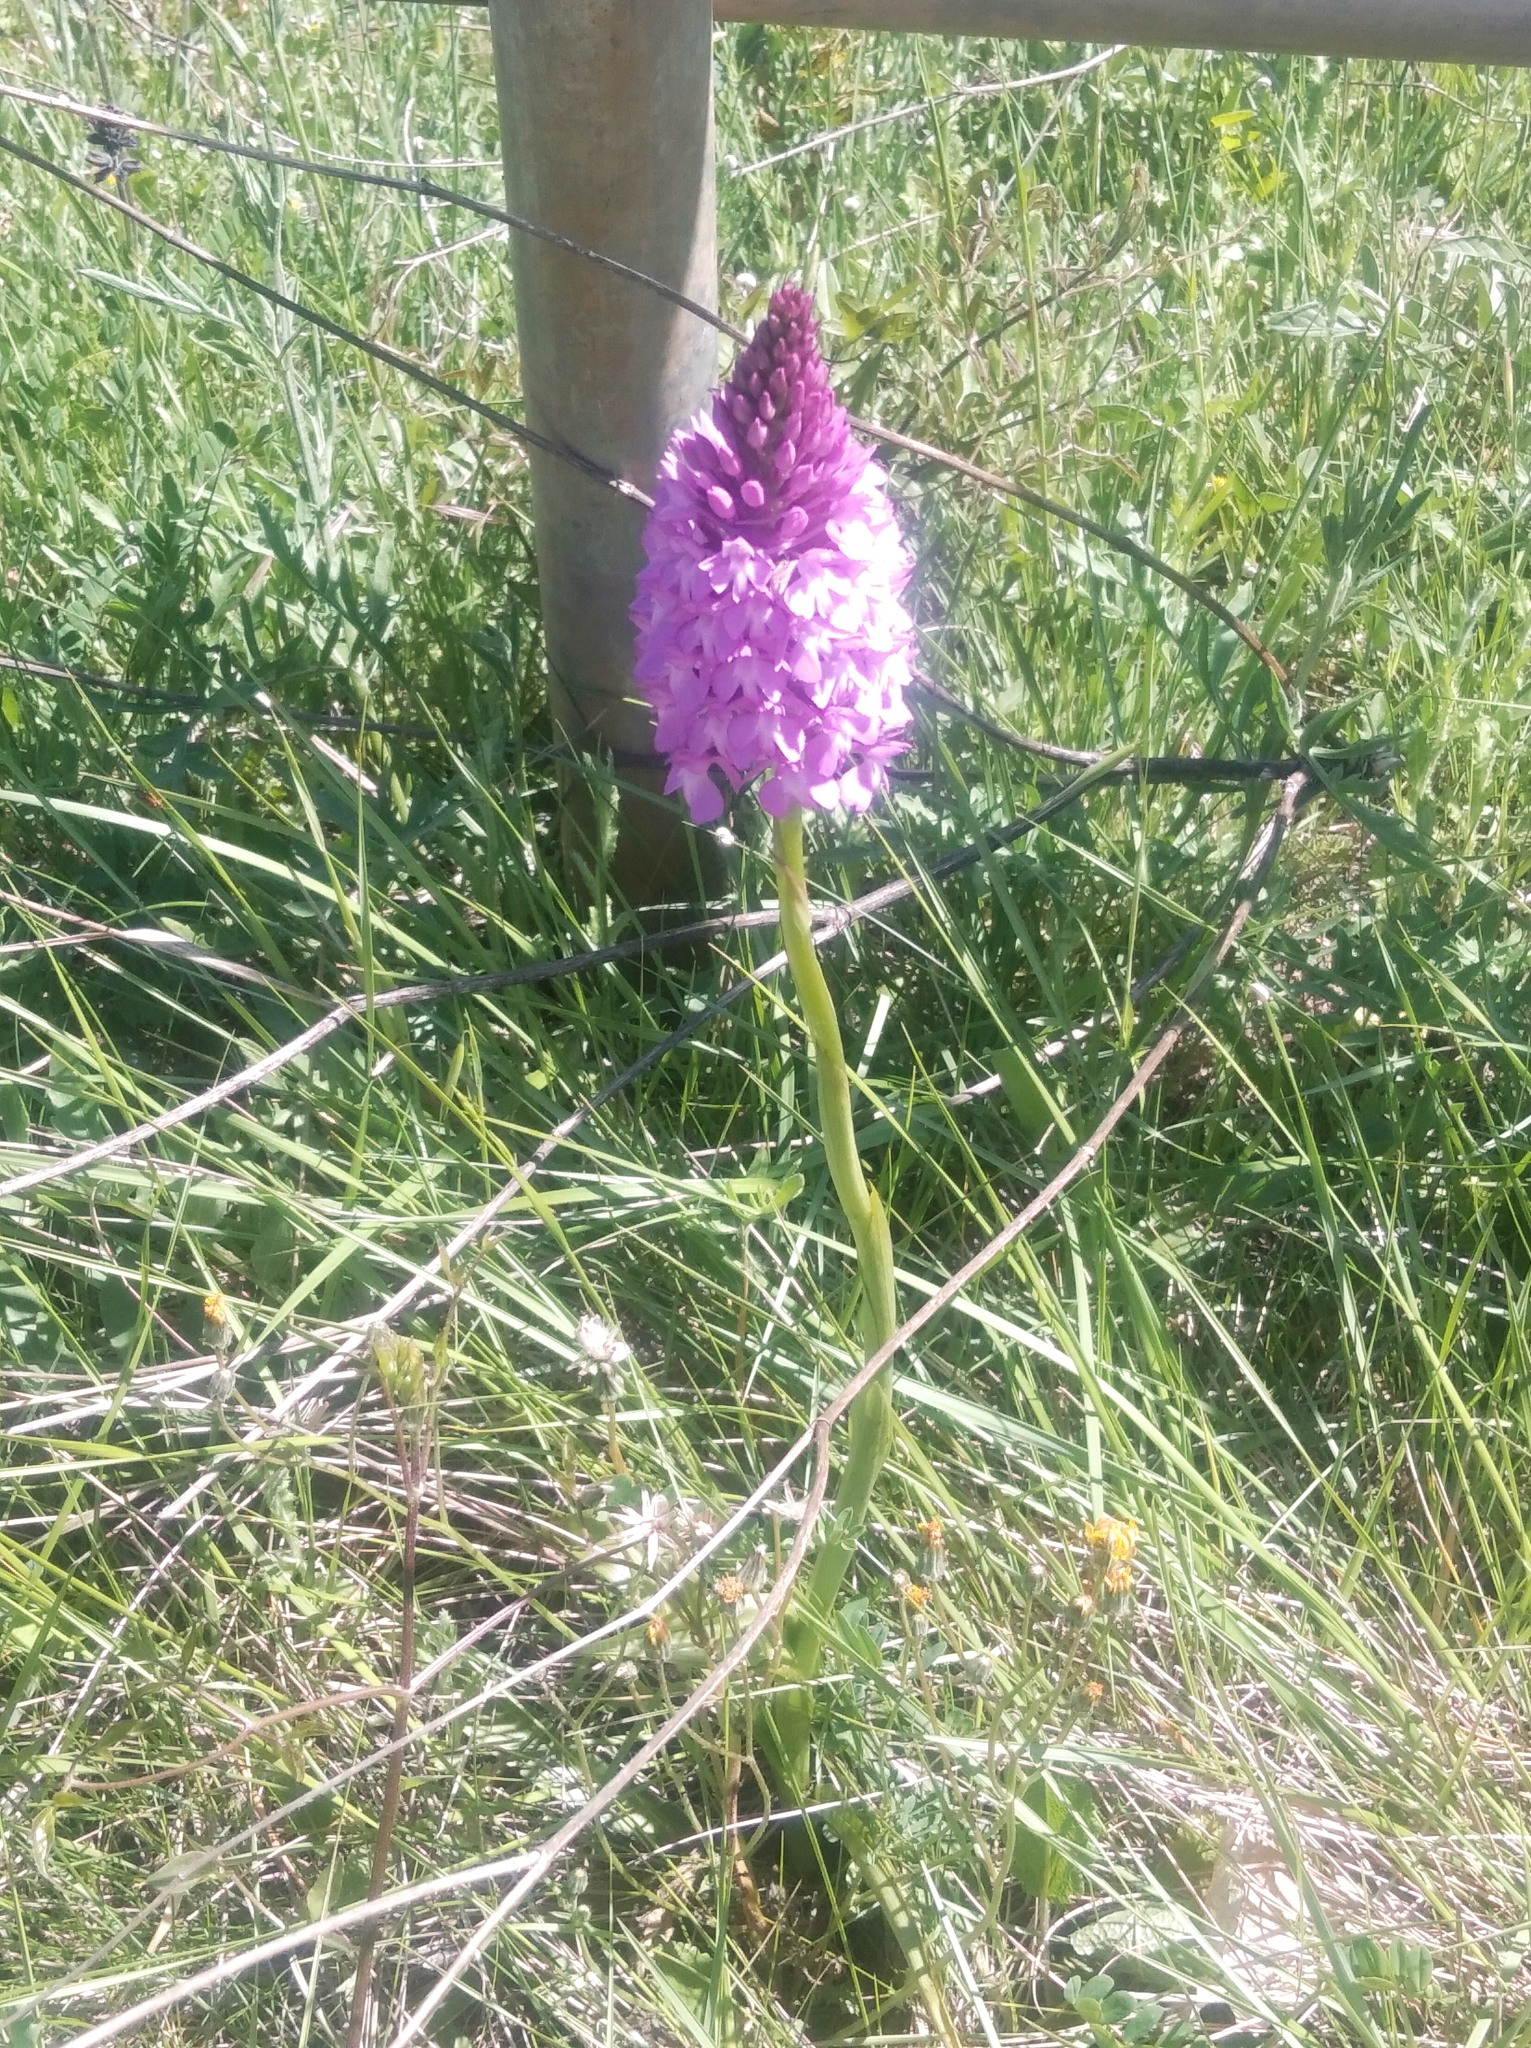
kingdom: Plantae
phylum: Tracheophyta
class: Liliopsida
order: Asparagales
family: Orchidaceae
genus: Anacamptis
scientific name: Anacamptis pyramidalis
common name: Pyramidal orchid
